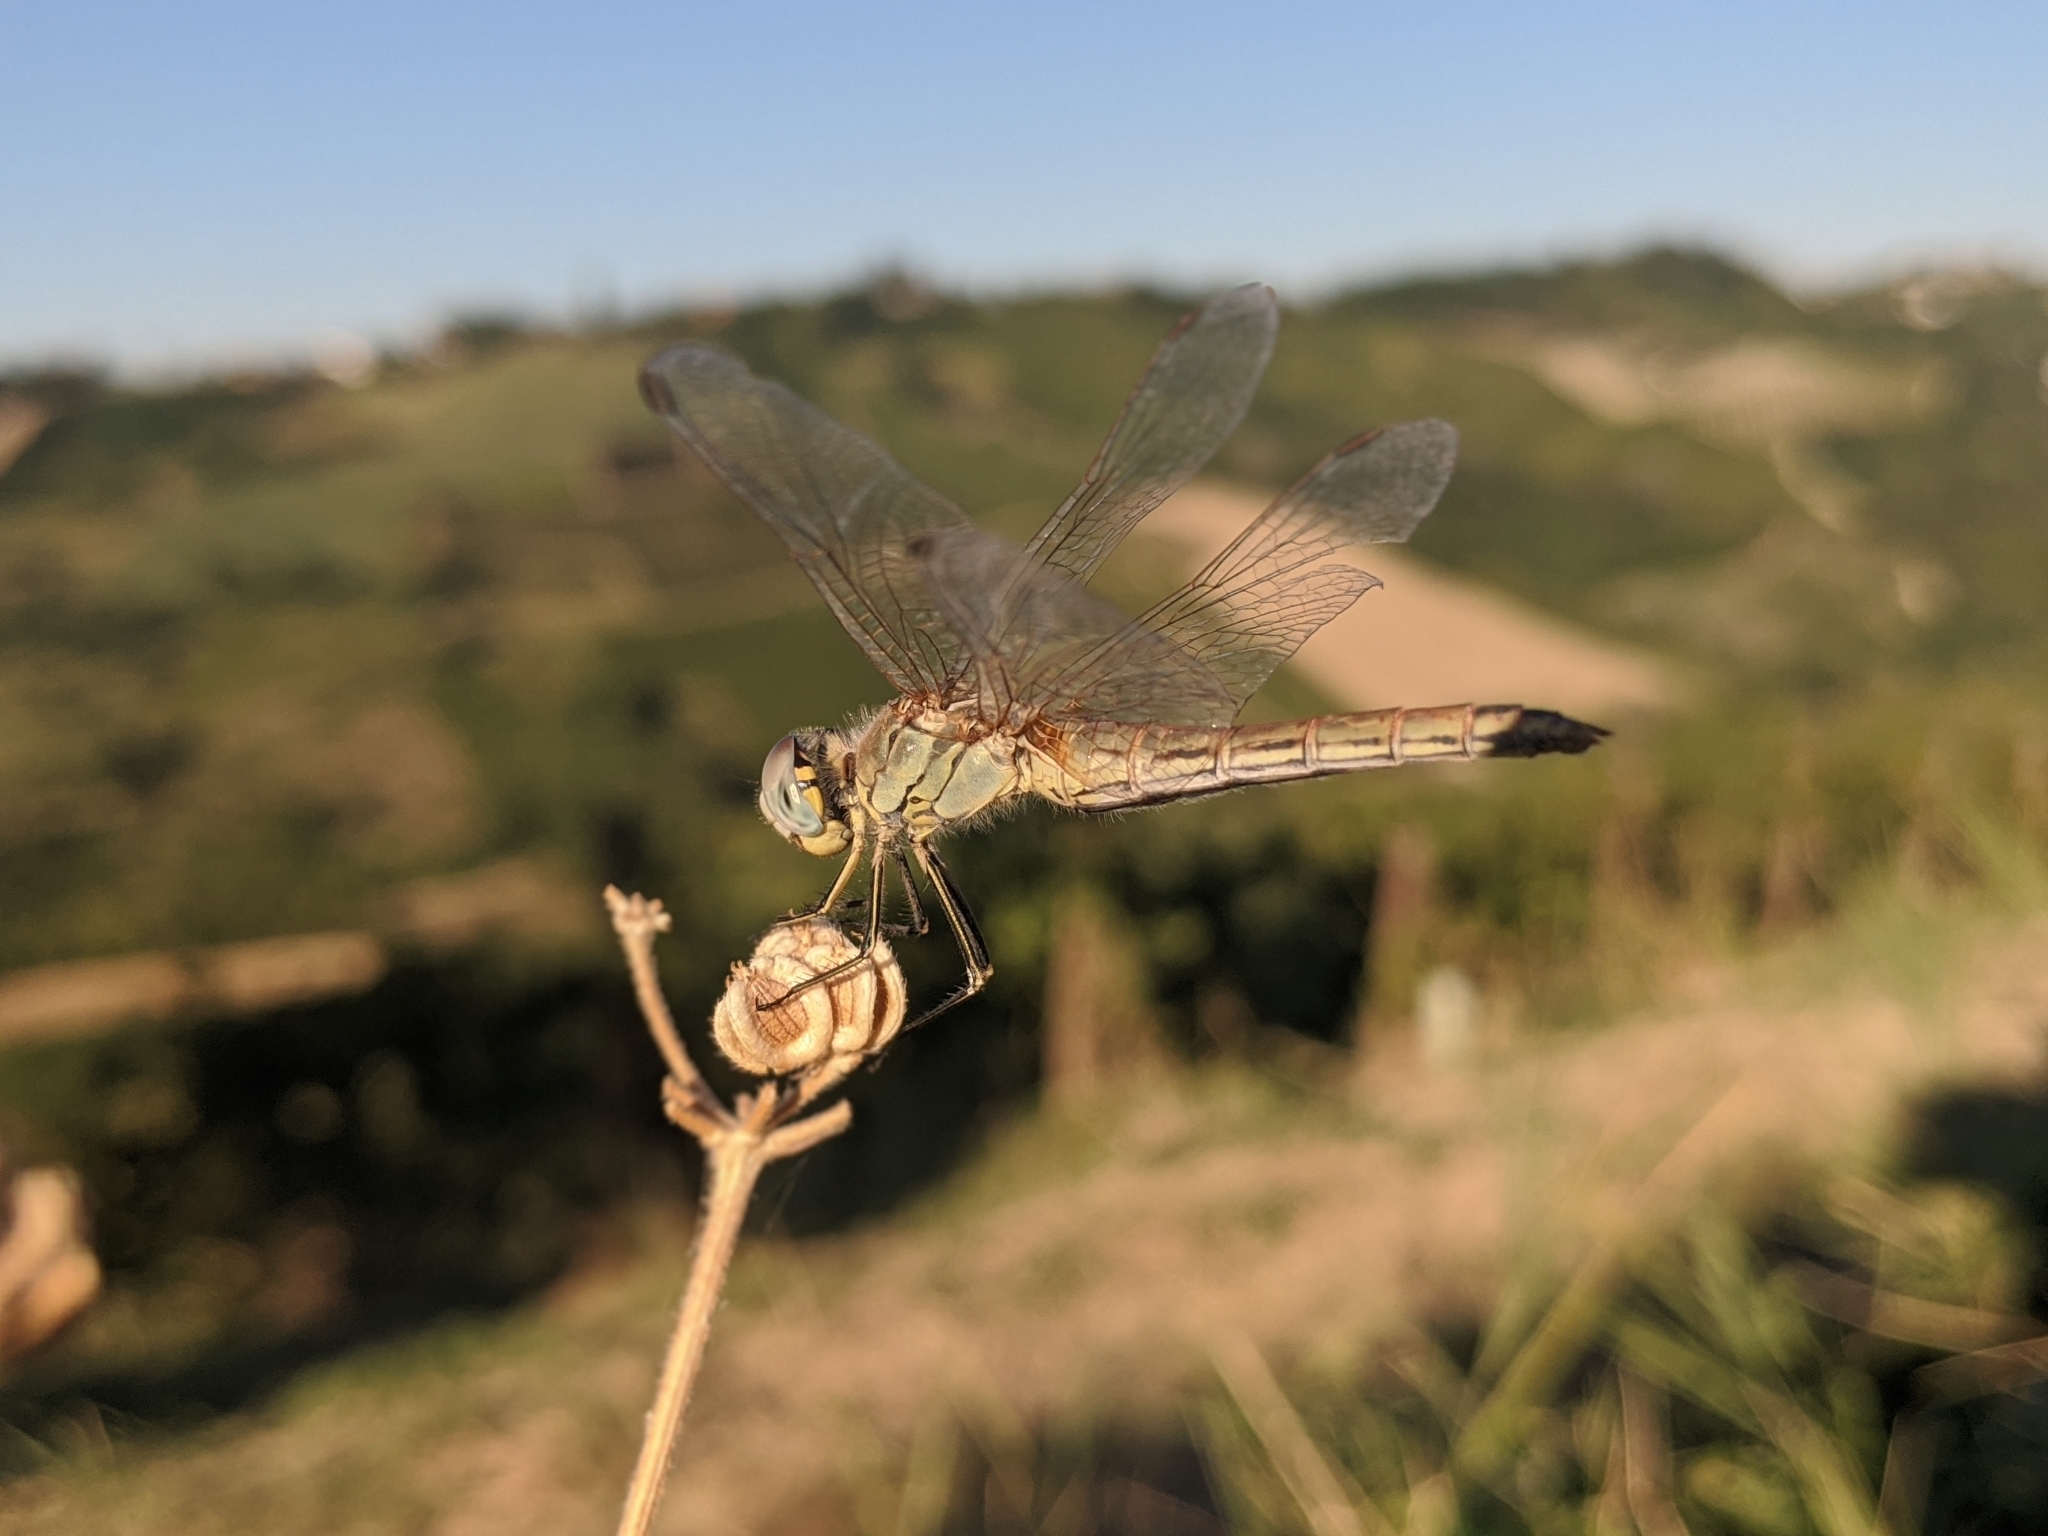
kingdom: Animalia
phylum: Arthropoda
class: Insecta
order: Odonata
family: Libellulidae
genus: Sympetrum
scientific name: Sympetrum fonscolombii
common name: Red-veined darter
